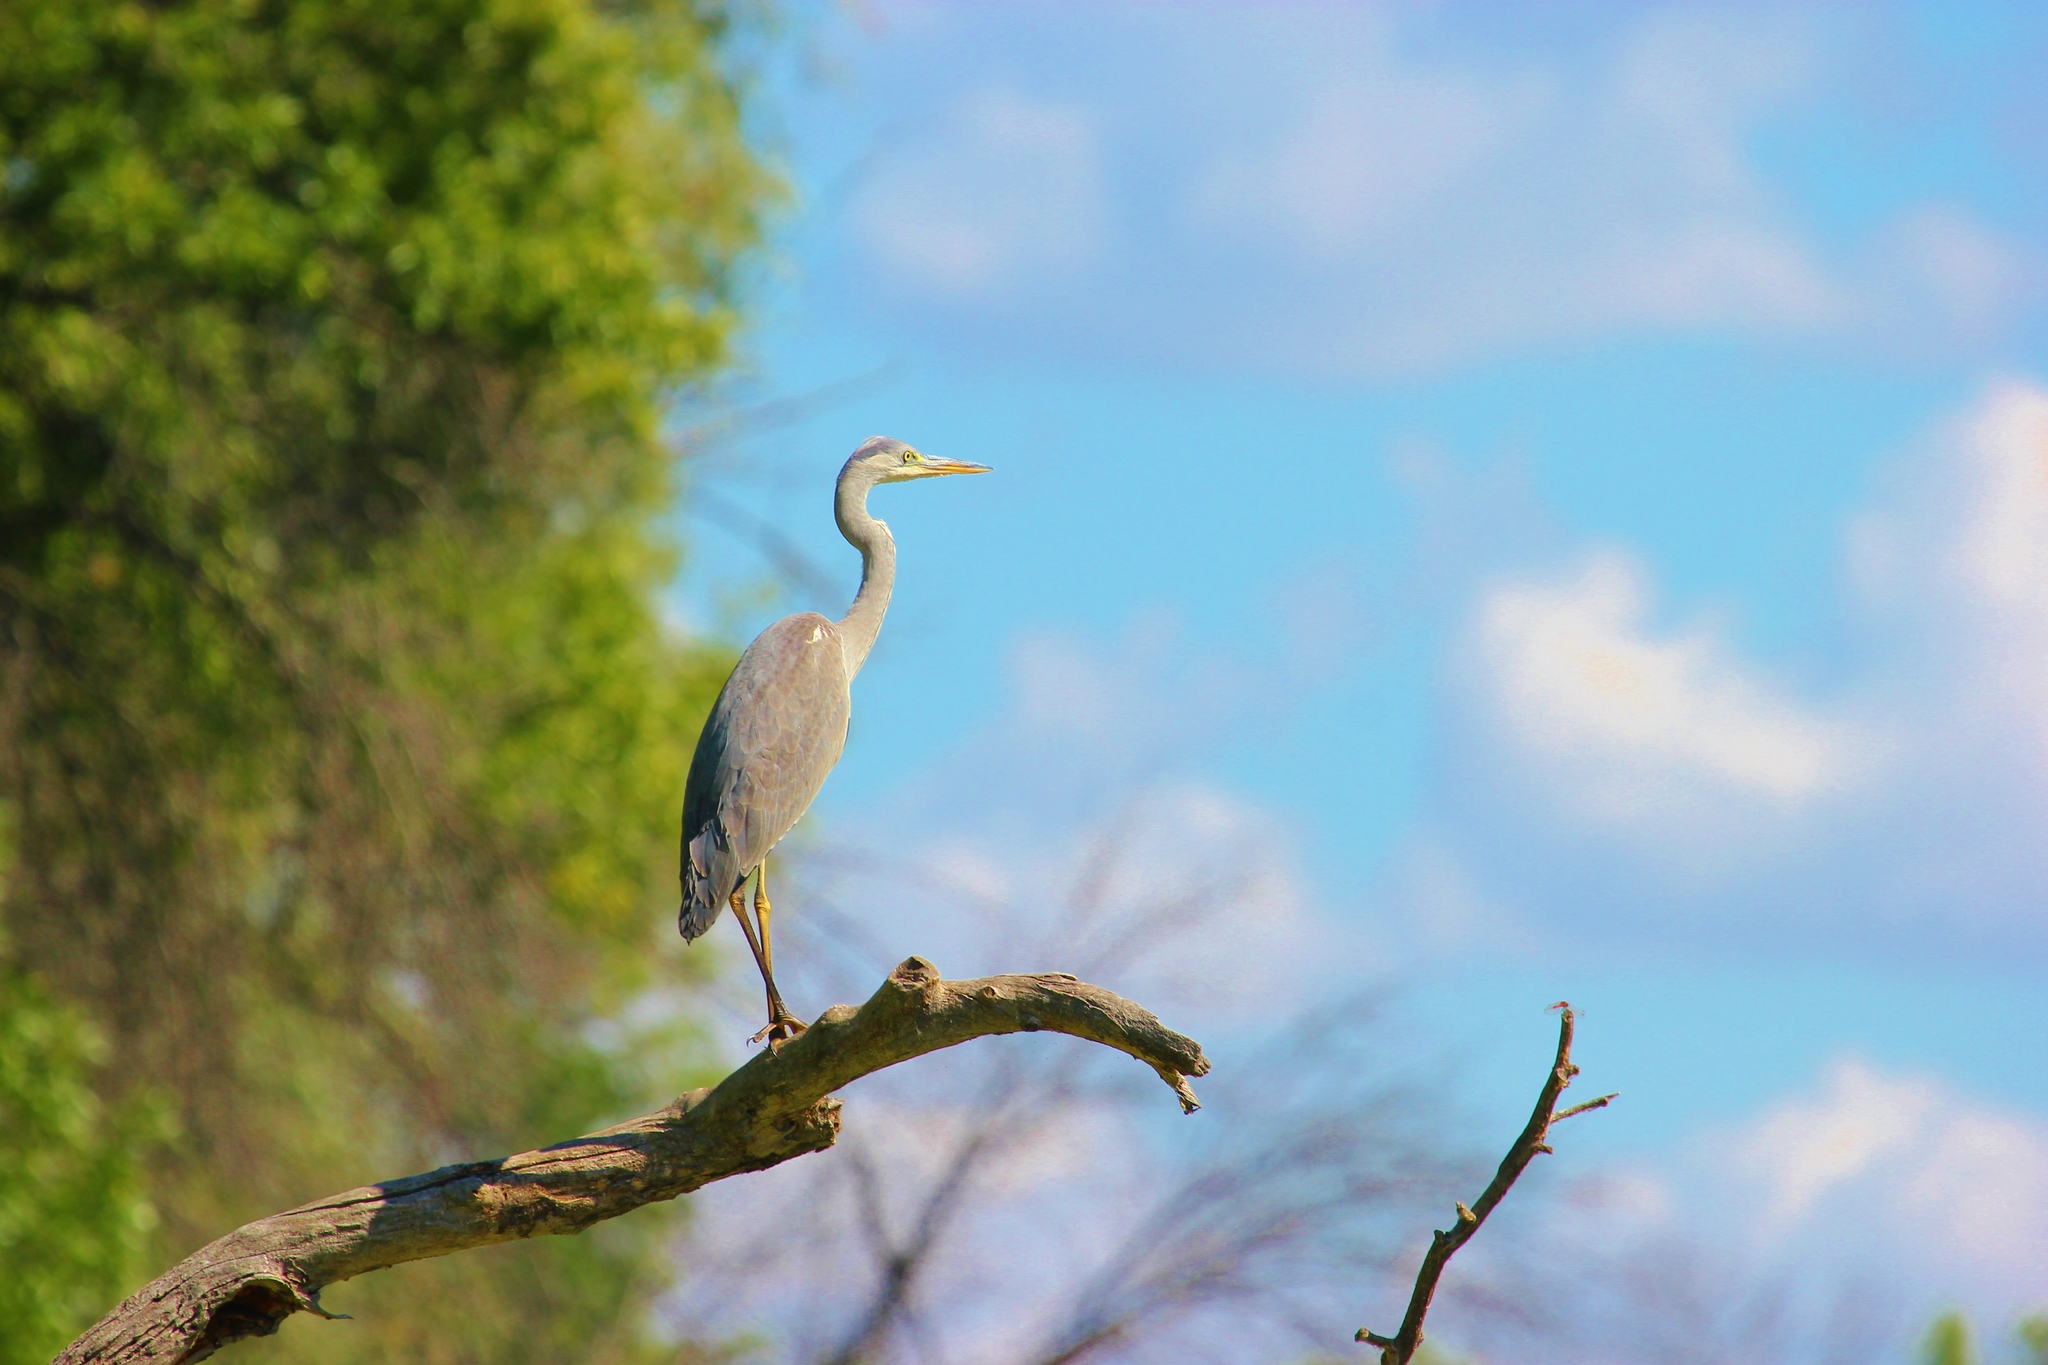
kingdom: Animalia
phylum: Chordata
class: Aves
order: Pelecaniformes
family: Ardeidae
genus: Ardea
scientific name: Ardea cinerea
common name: Grey heron
